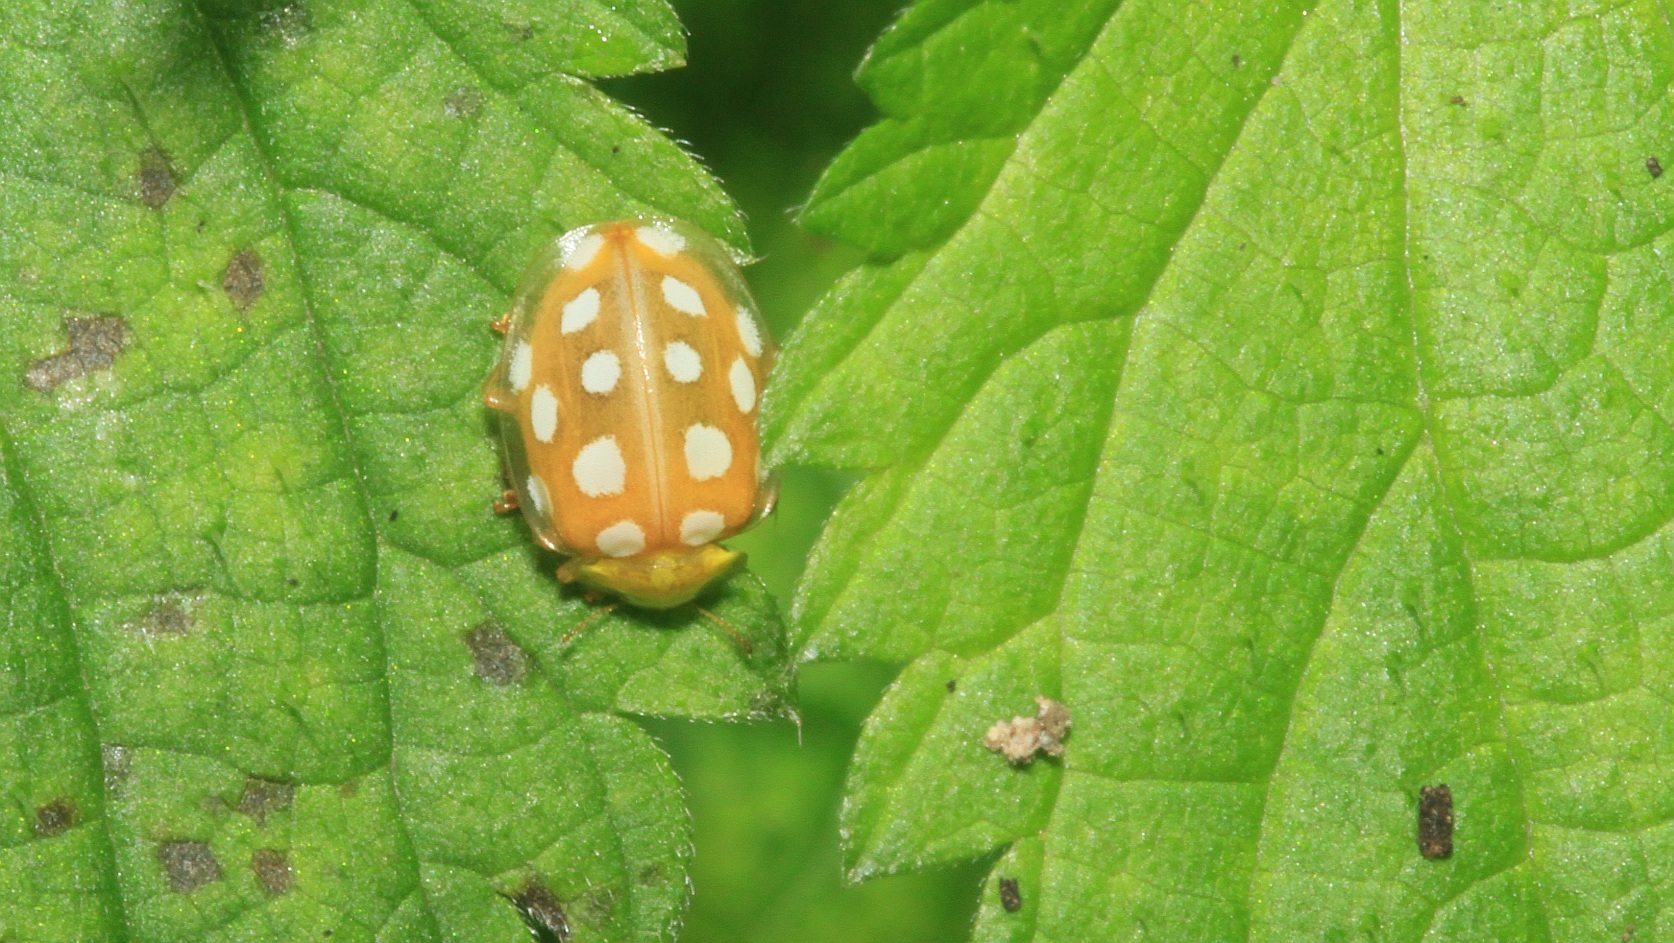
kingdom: Animalia
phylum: Arthropoda
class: Insecta
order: Coleoptera
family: Coccinellidae
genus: Halyzia
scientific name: Halyzia sedecimguttata
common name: Orange ladybird
